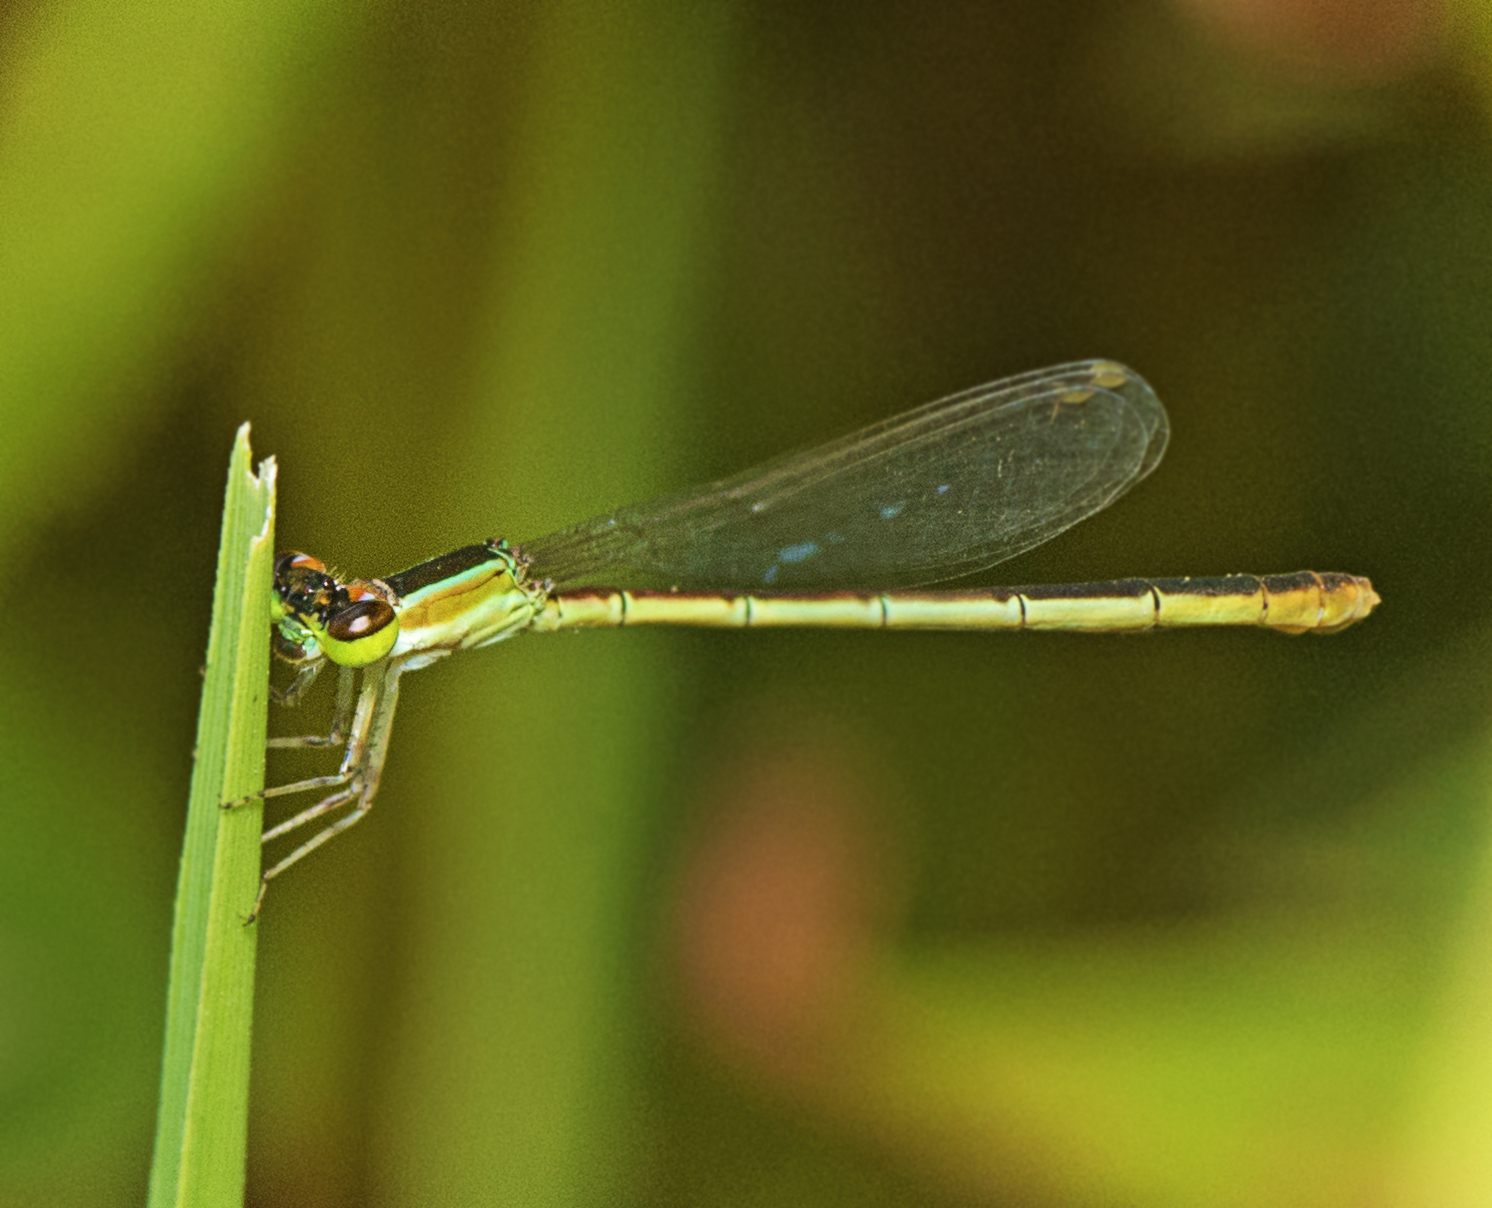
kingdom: Animalia
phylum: Arthropoda
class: Insecta
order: Odonata
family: Coenagrionidae
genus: Agriocnemis
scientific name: Agriocnemis pygmaea
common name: Pygmy wisp
